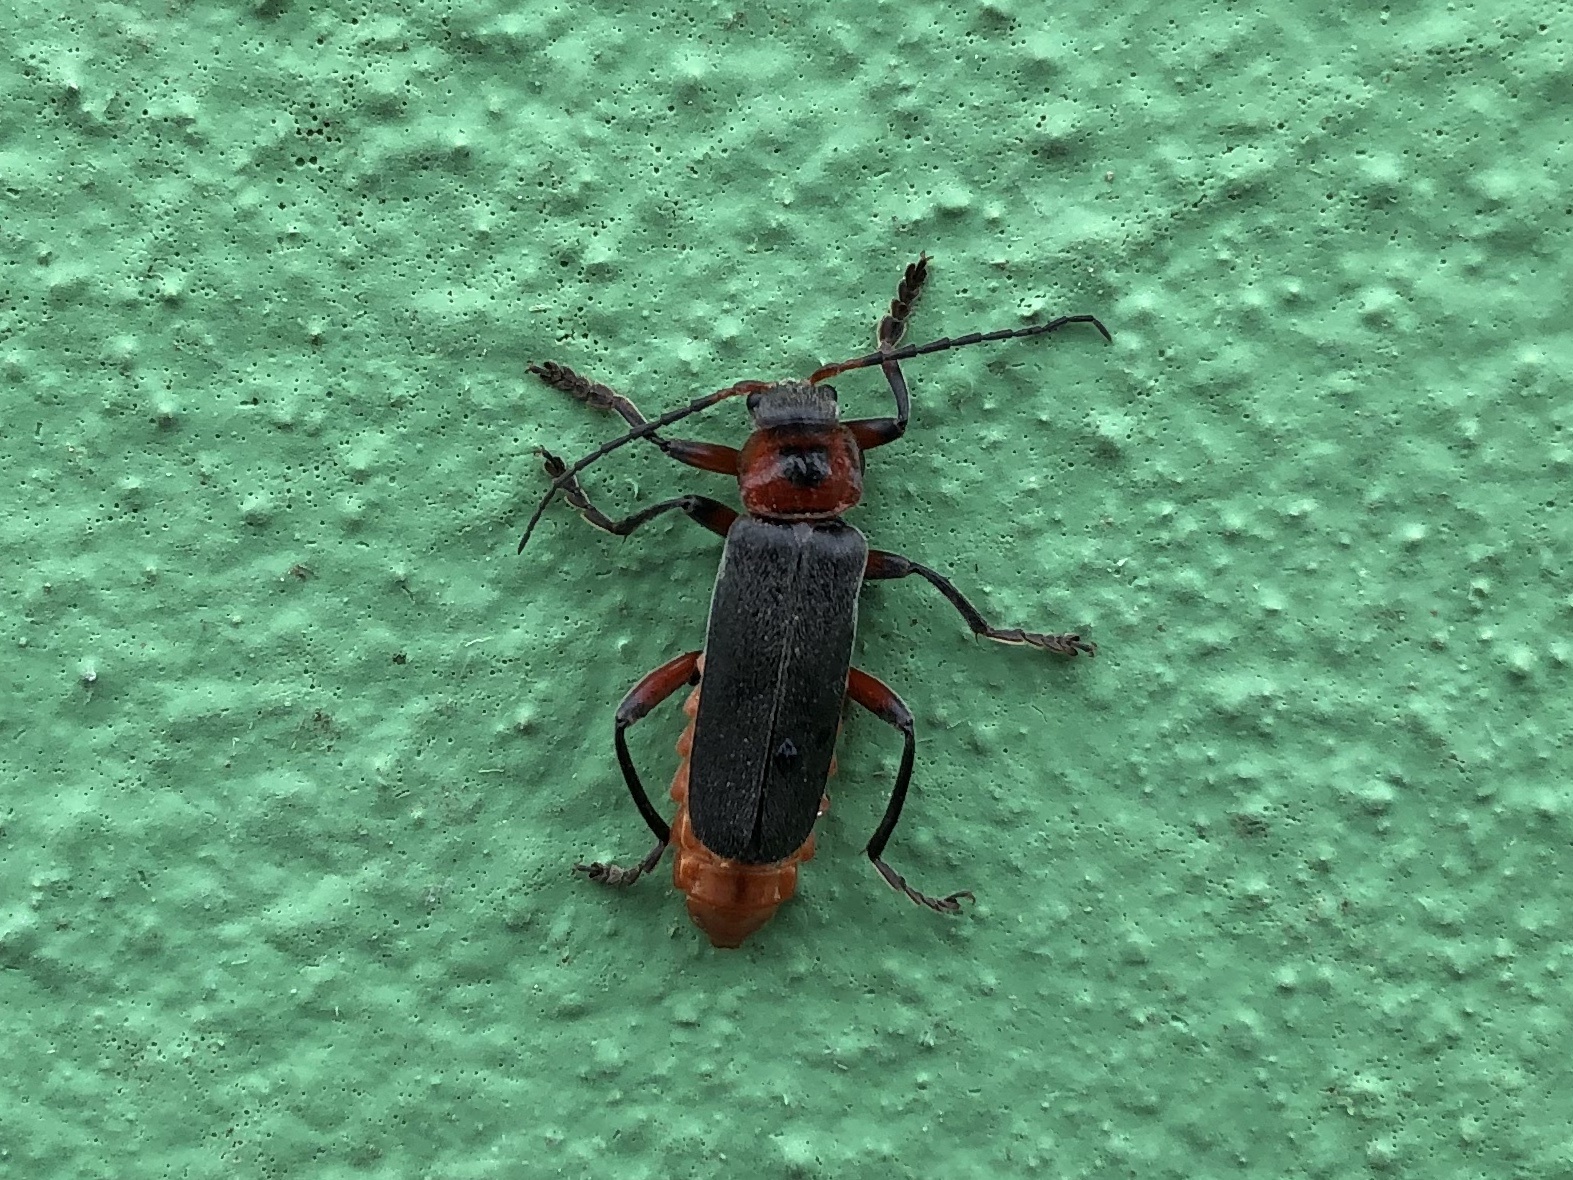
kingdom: Animalia
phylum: Arthropoda
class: Insecta
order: Coleoptera
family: Cantharidae
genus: Cantharis
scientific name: Cantharis rustica
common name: Soldier beetle
